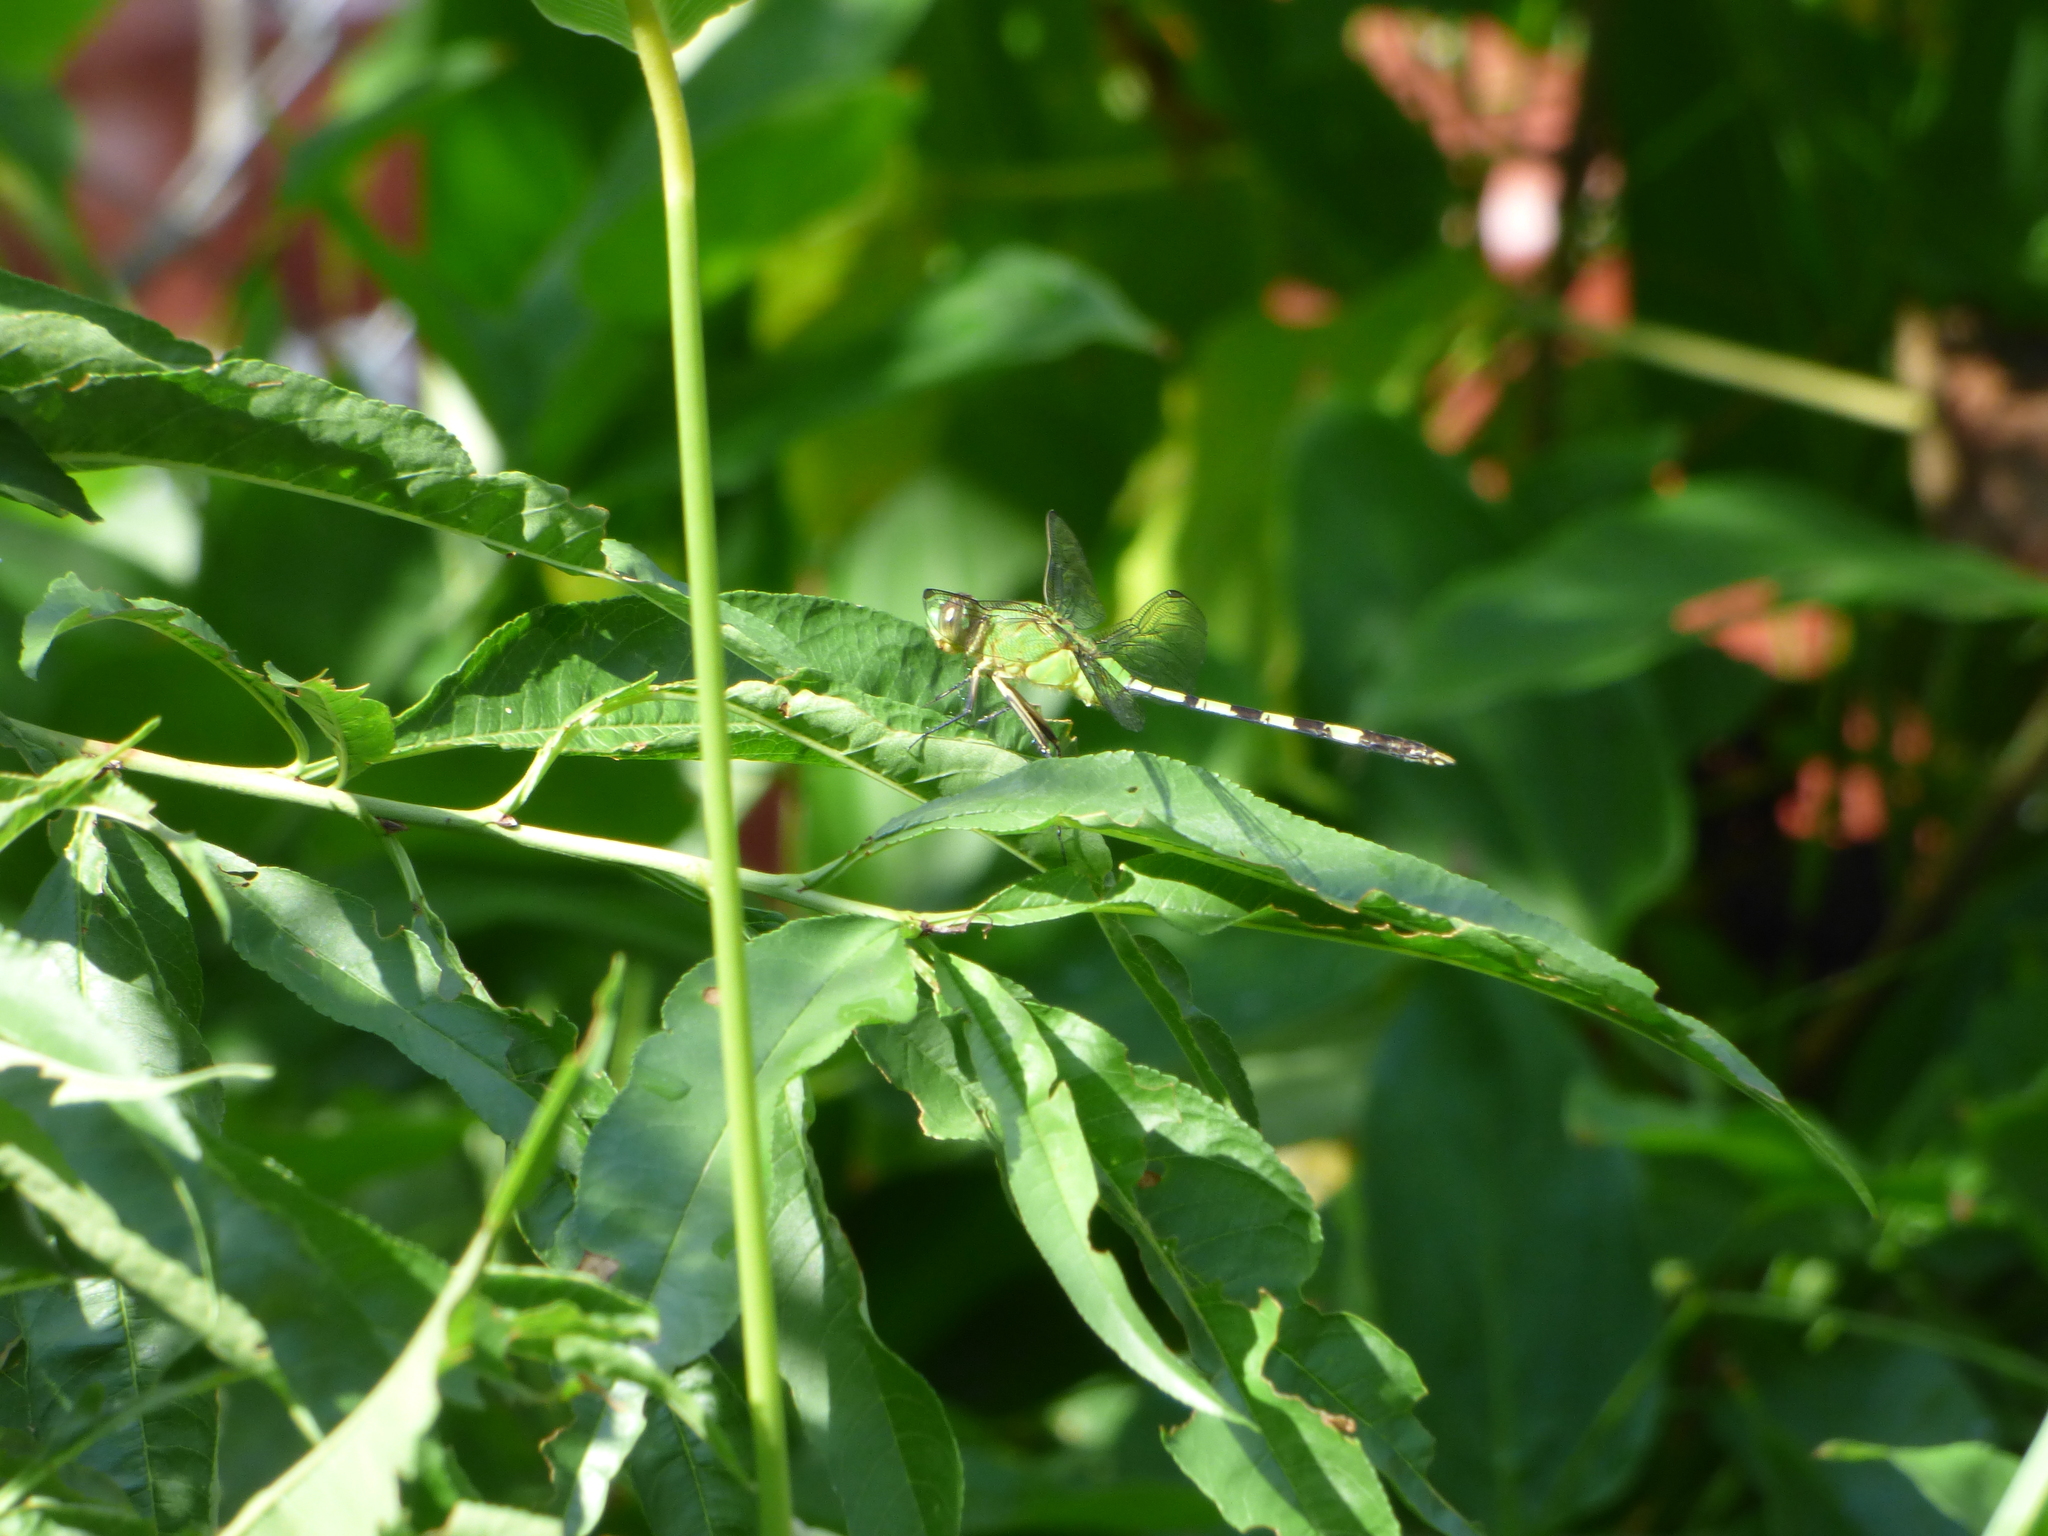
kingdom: Animalia
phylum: Arthropoda
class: Insecta
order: Odonata
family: Libellulidae
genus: Erythemis
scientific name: Erythemis vesiculosa
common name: Great pondhawk
